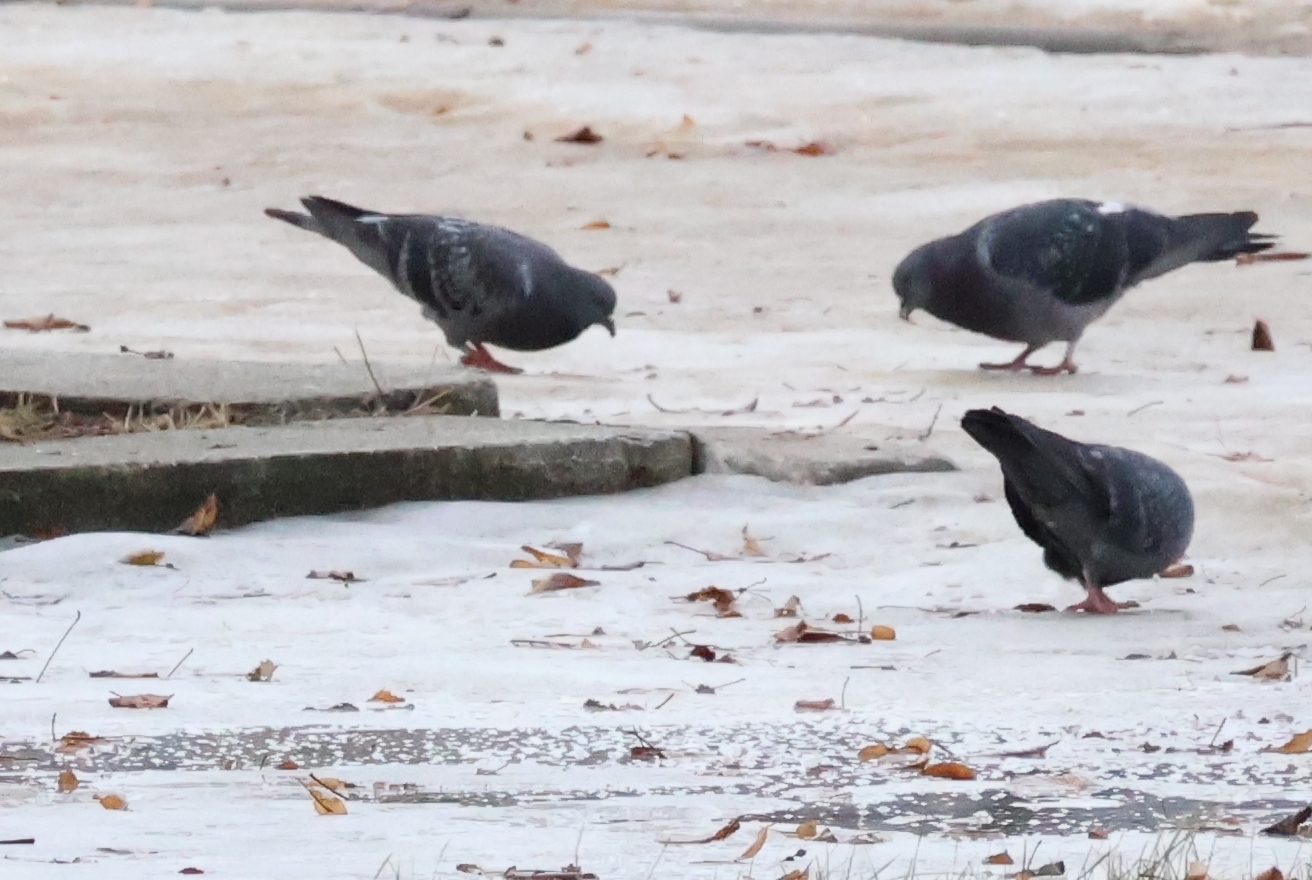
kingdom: Animalia
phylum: Chordata
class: Aves
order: Columbiformes
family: Columbidae
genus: Columba
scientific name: Columba livia
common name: Rock pigeon
